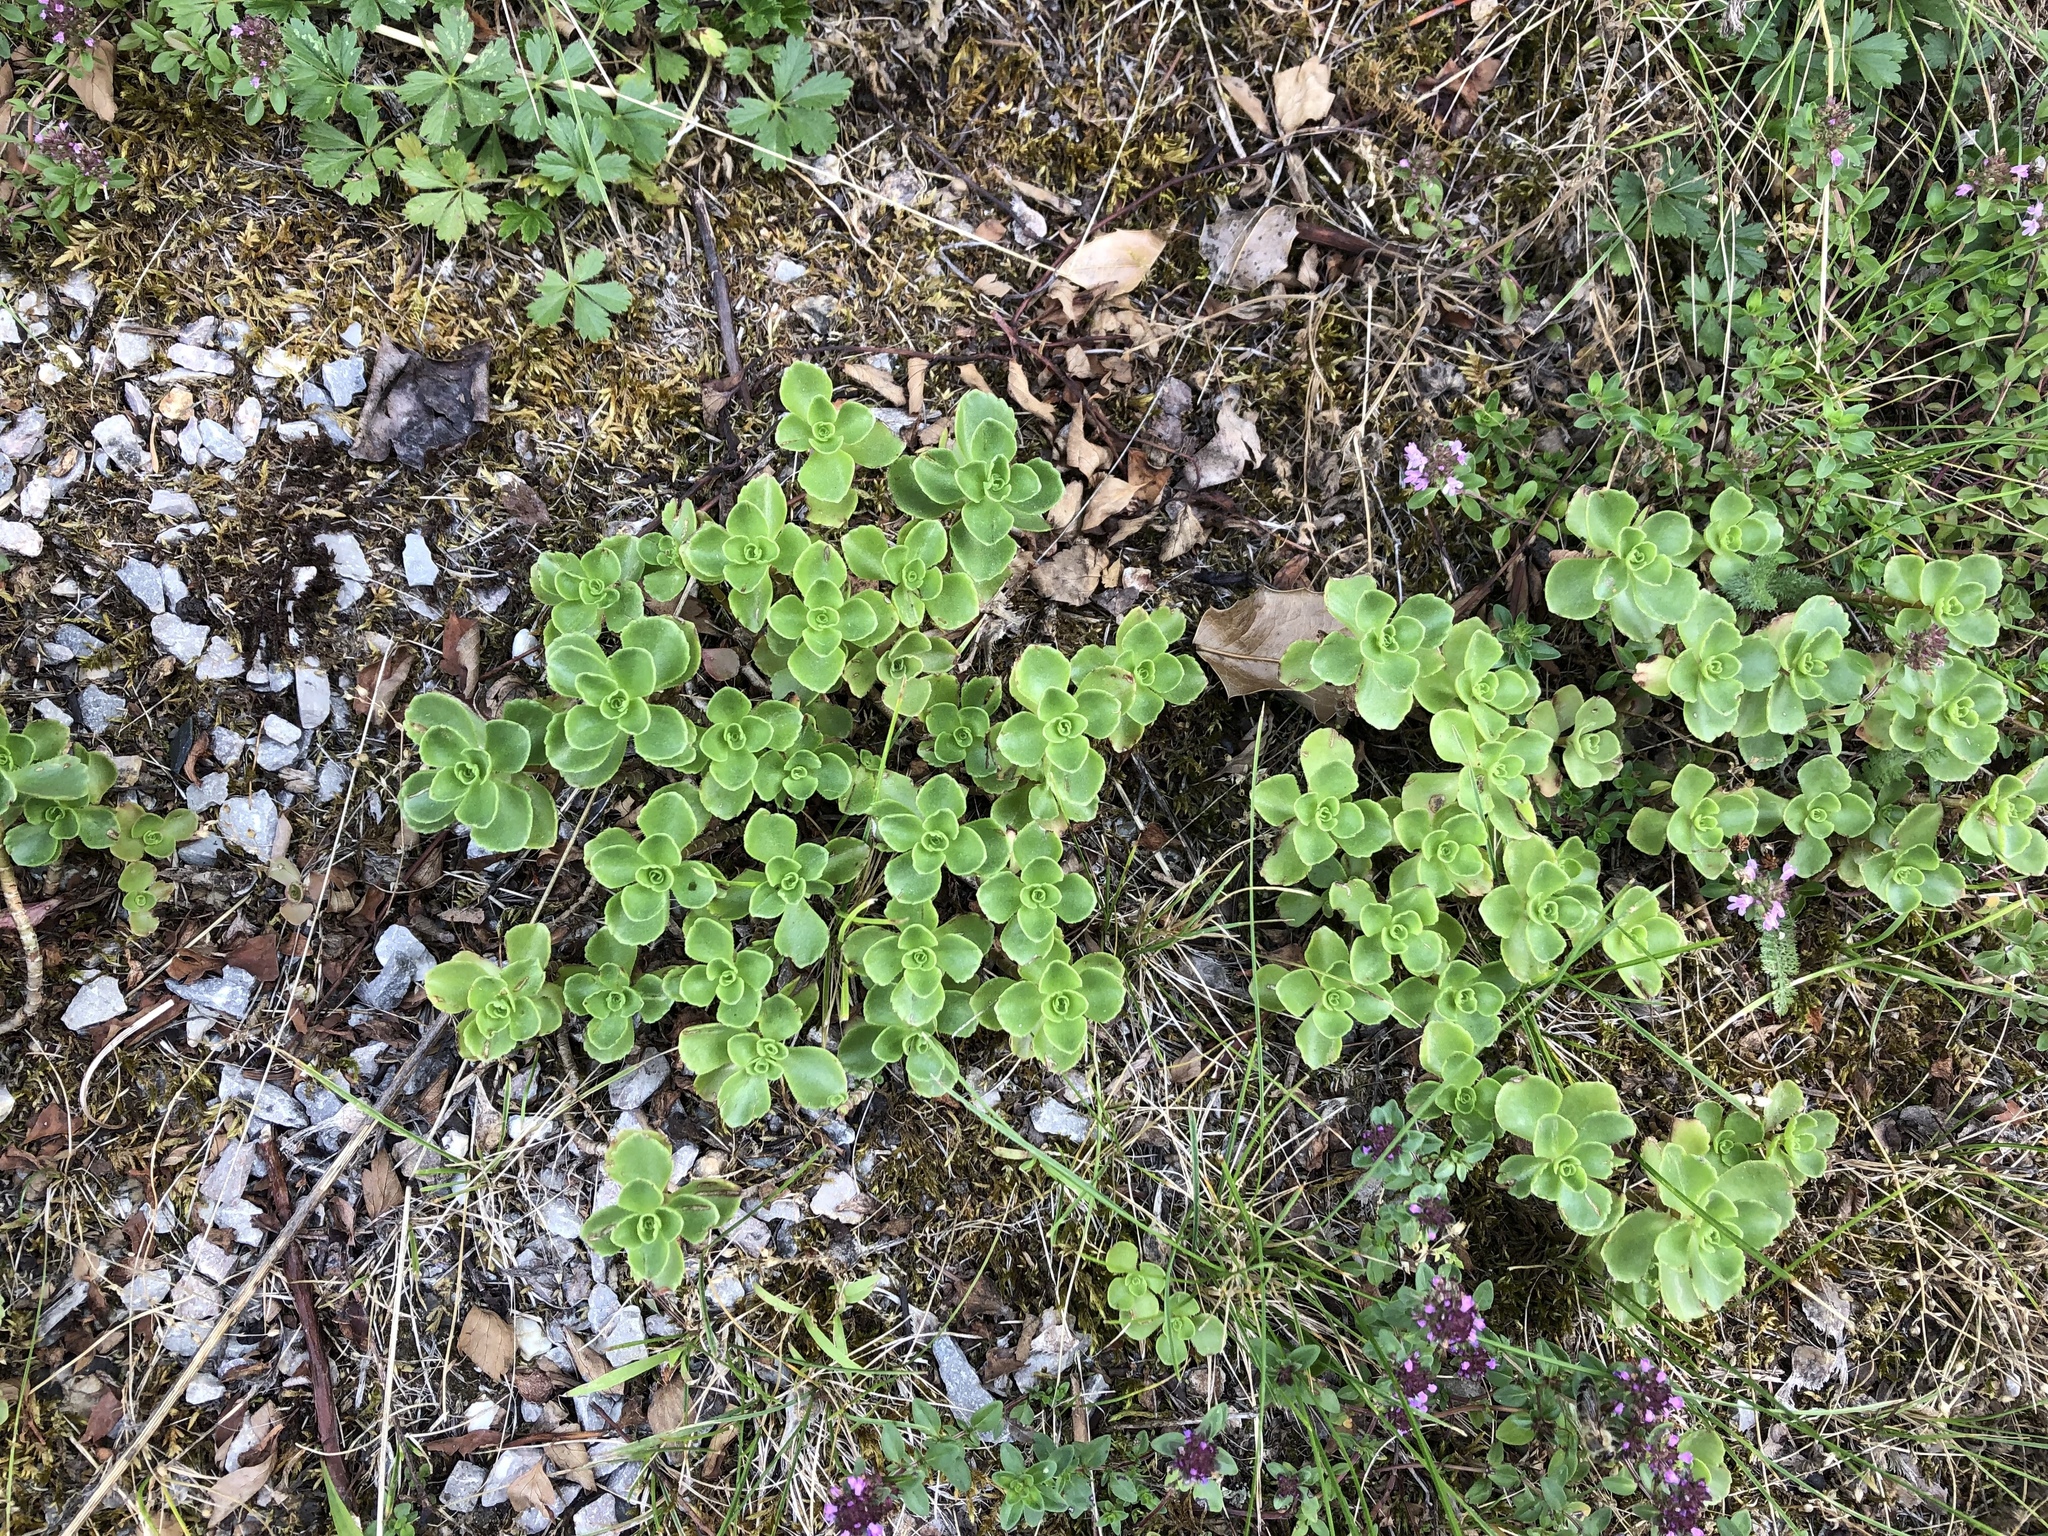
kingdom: Plantae
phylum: Tracheophyta
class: Magnoliopsida
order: Saxifragales
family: Crassulaceae
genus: Phedimus
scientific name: Phedimus spurius
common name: Caucasian stonecrop
